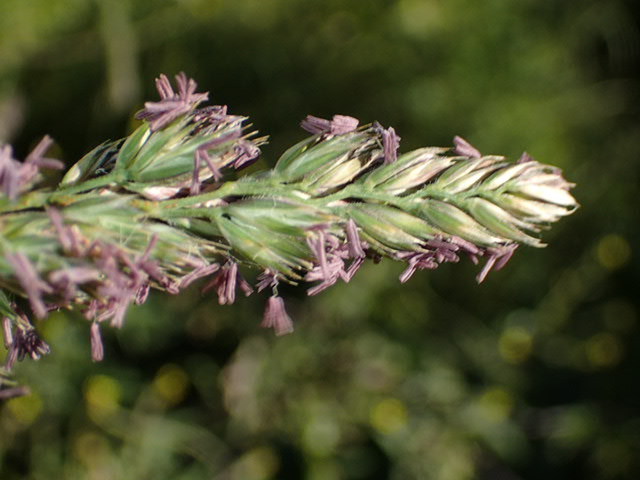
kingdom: Plantae
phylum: Tracheophyta
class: Liliopsida
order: Poales
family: Poaceae
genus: Dactylis
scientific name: Dactylis glomerata
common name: Orchardgrass
